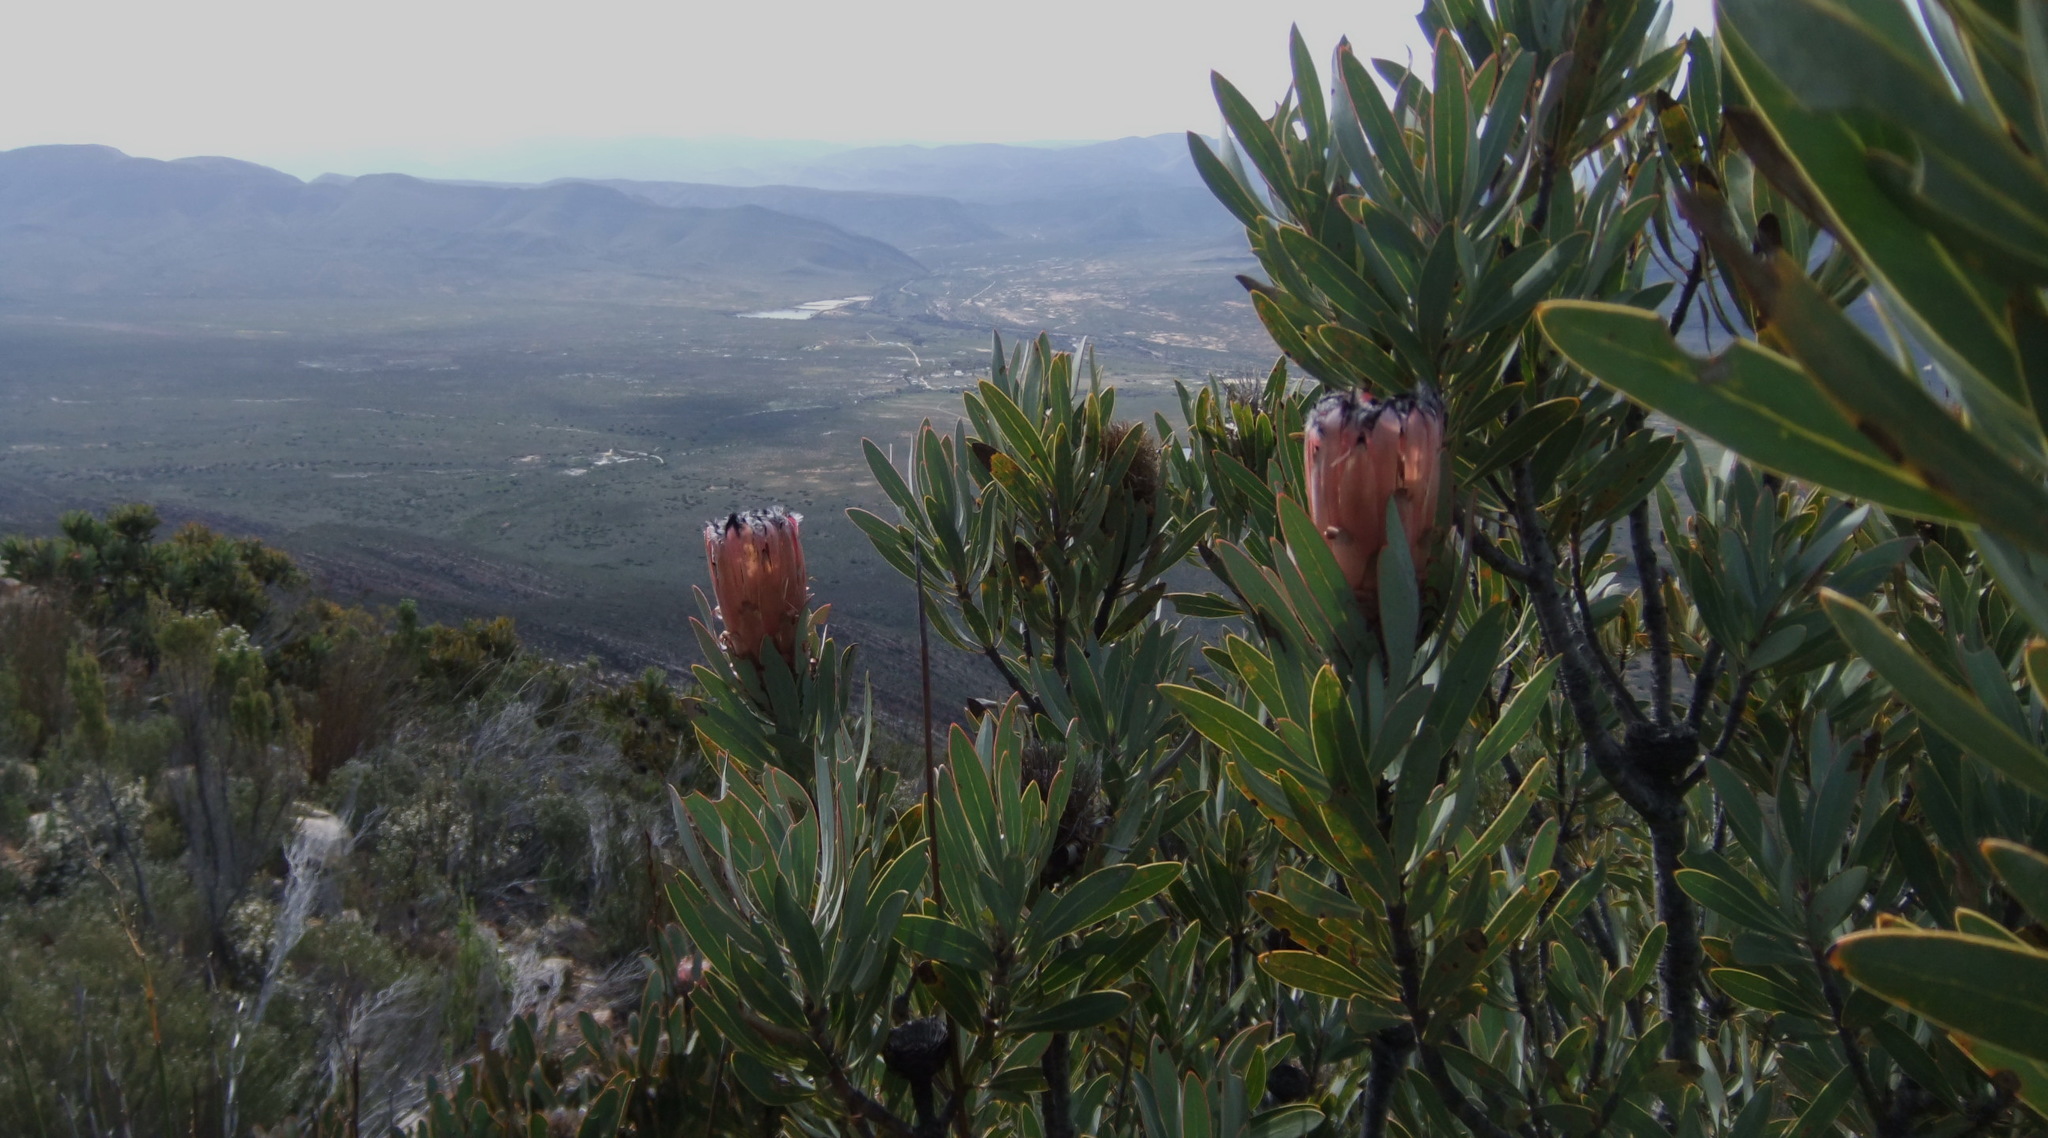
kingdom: Plantae
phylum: Tracheophyta
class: Magnoliopsida
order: Proteales
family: Proteaceae
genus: Protea
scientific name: Protea laurifolia
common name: Grey-leaf sugarbsh
